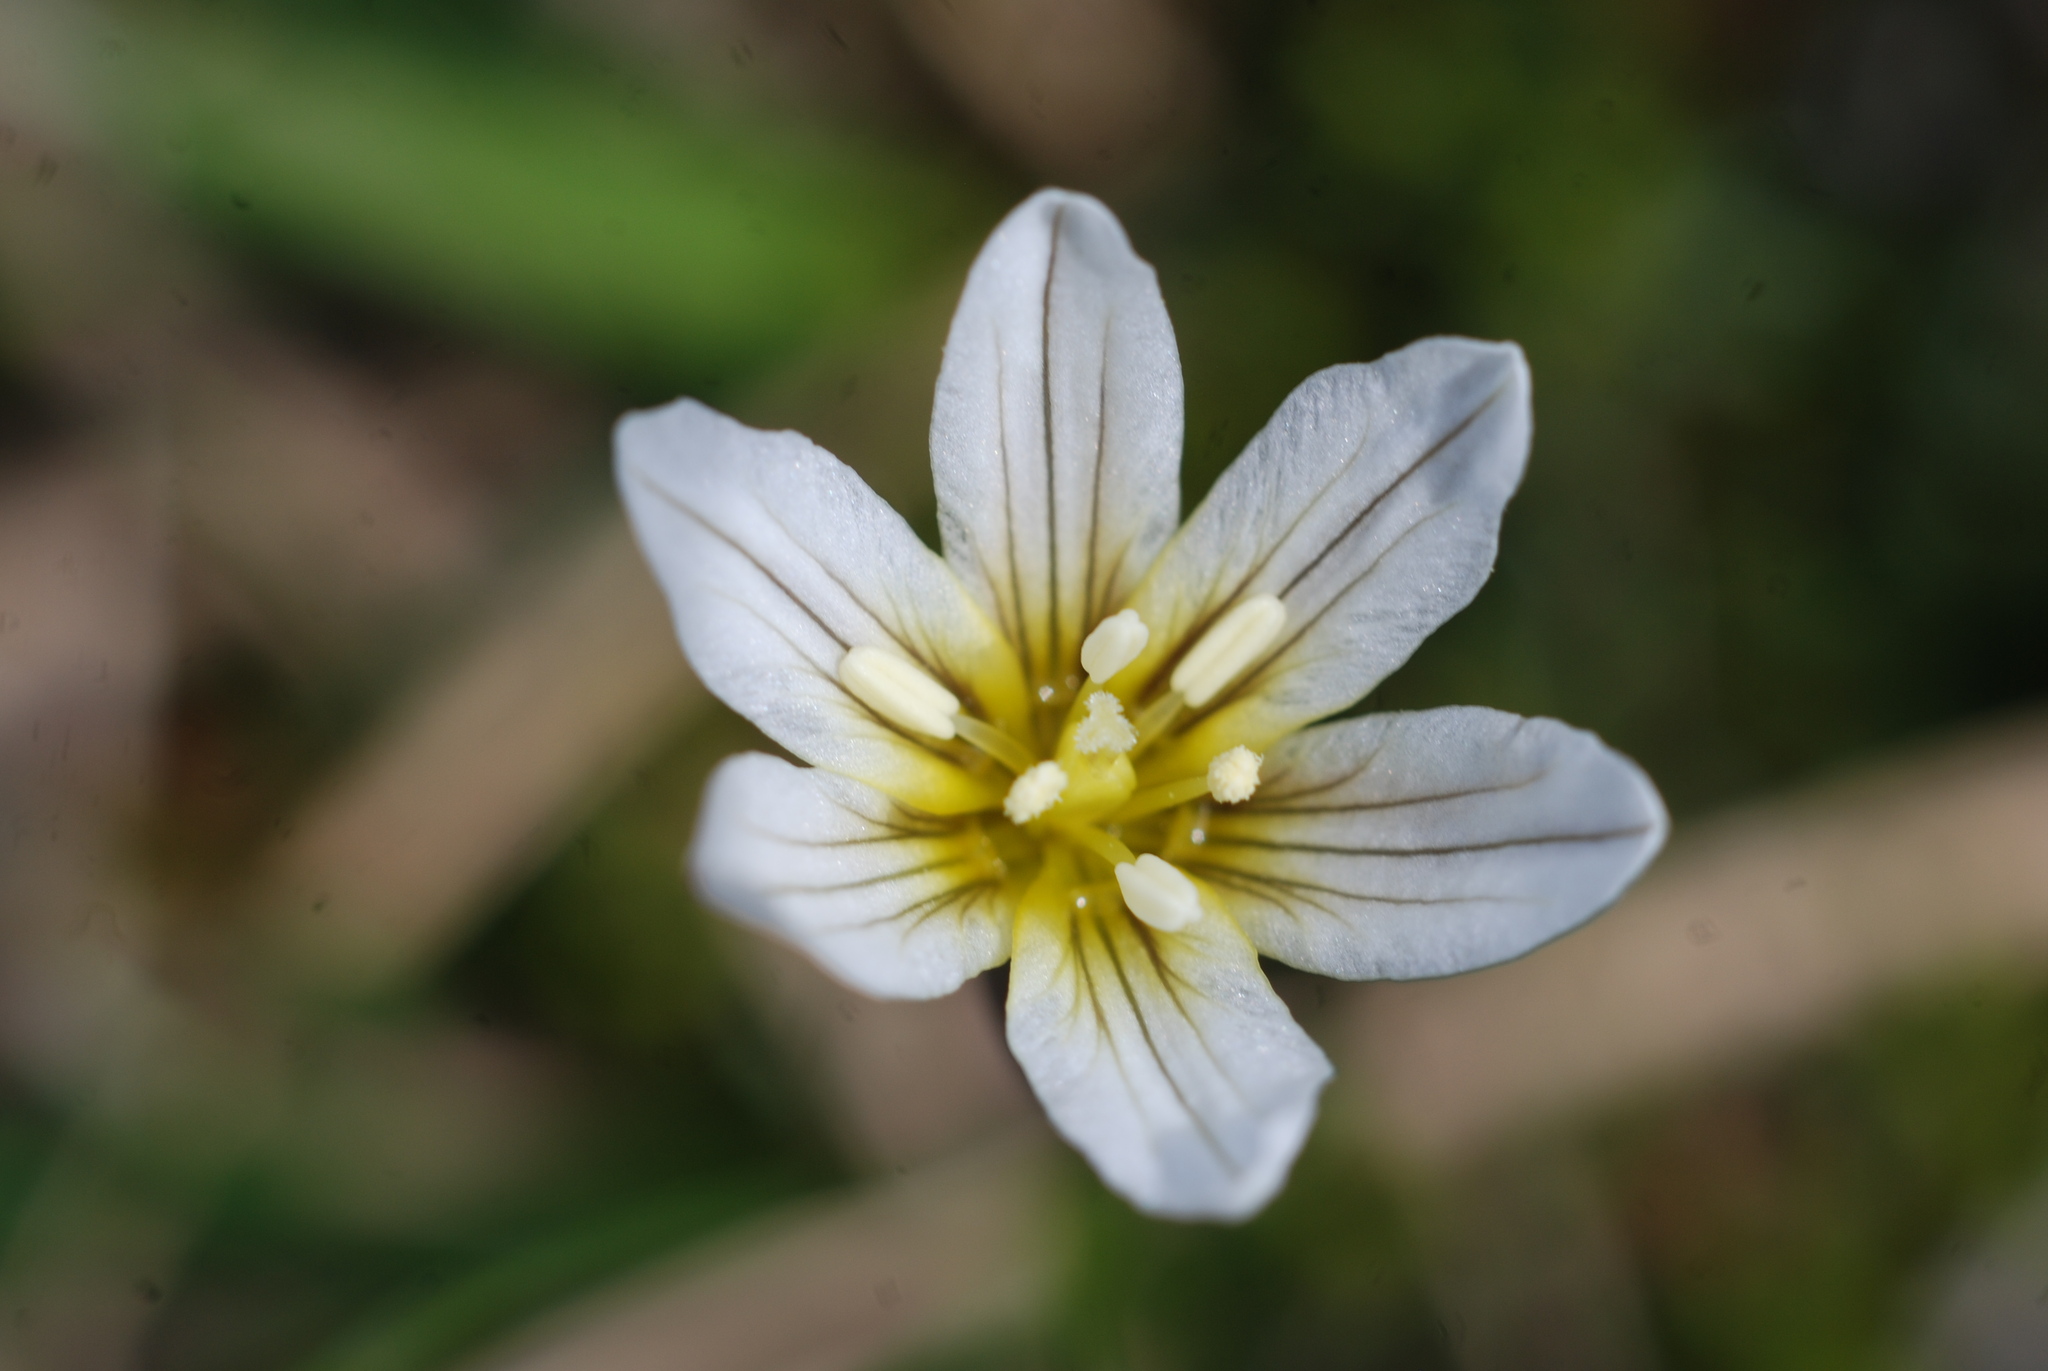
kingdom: Plantae
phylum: Tracheophyta
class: Liliopsida
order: Liliales
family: Liliaceae
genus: Gagea
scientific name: Gagea serotina
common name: Snowdon lily
